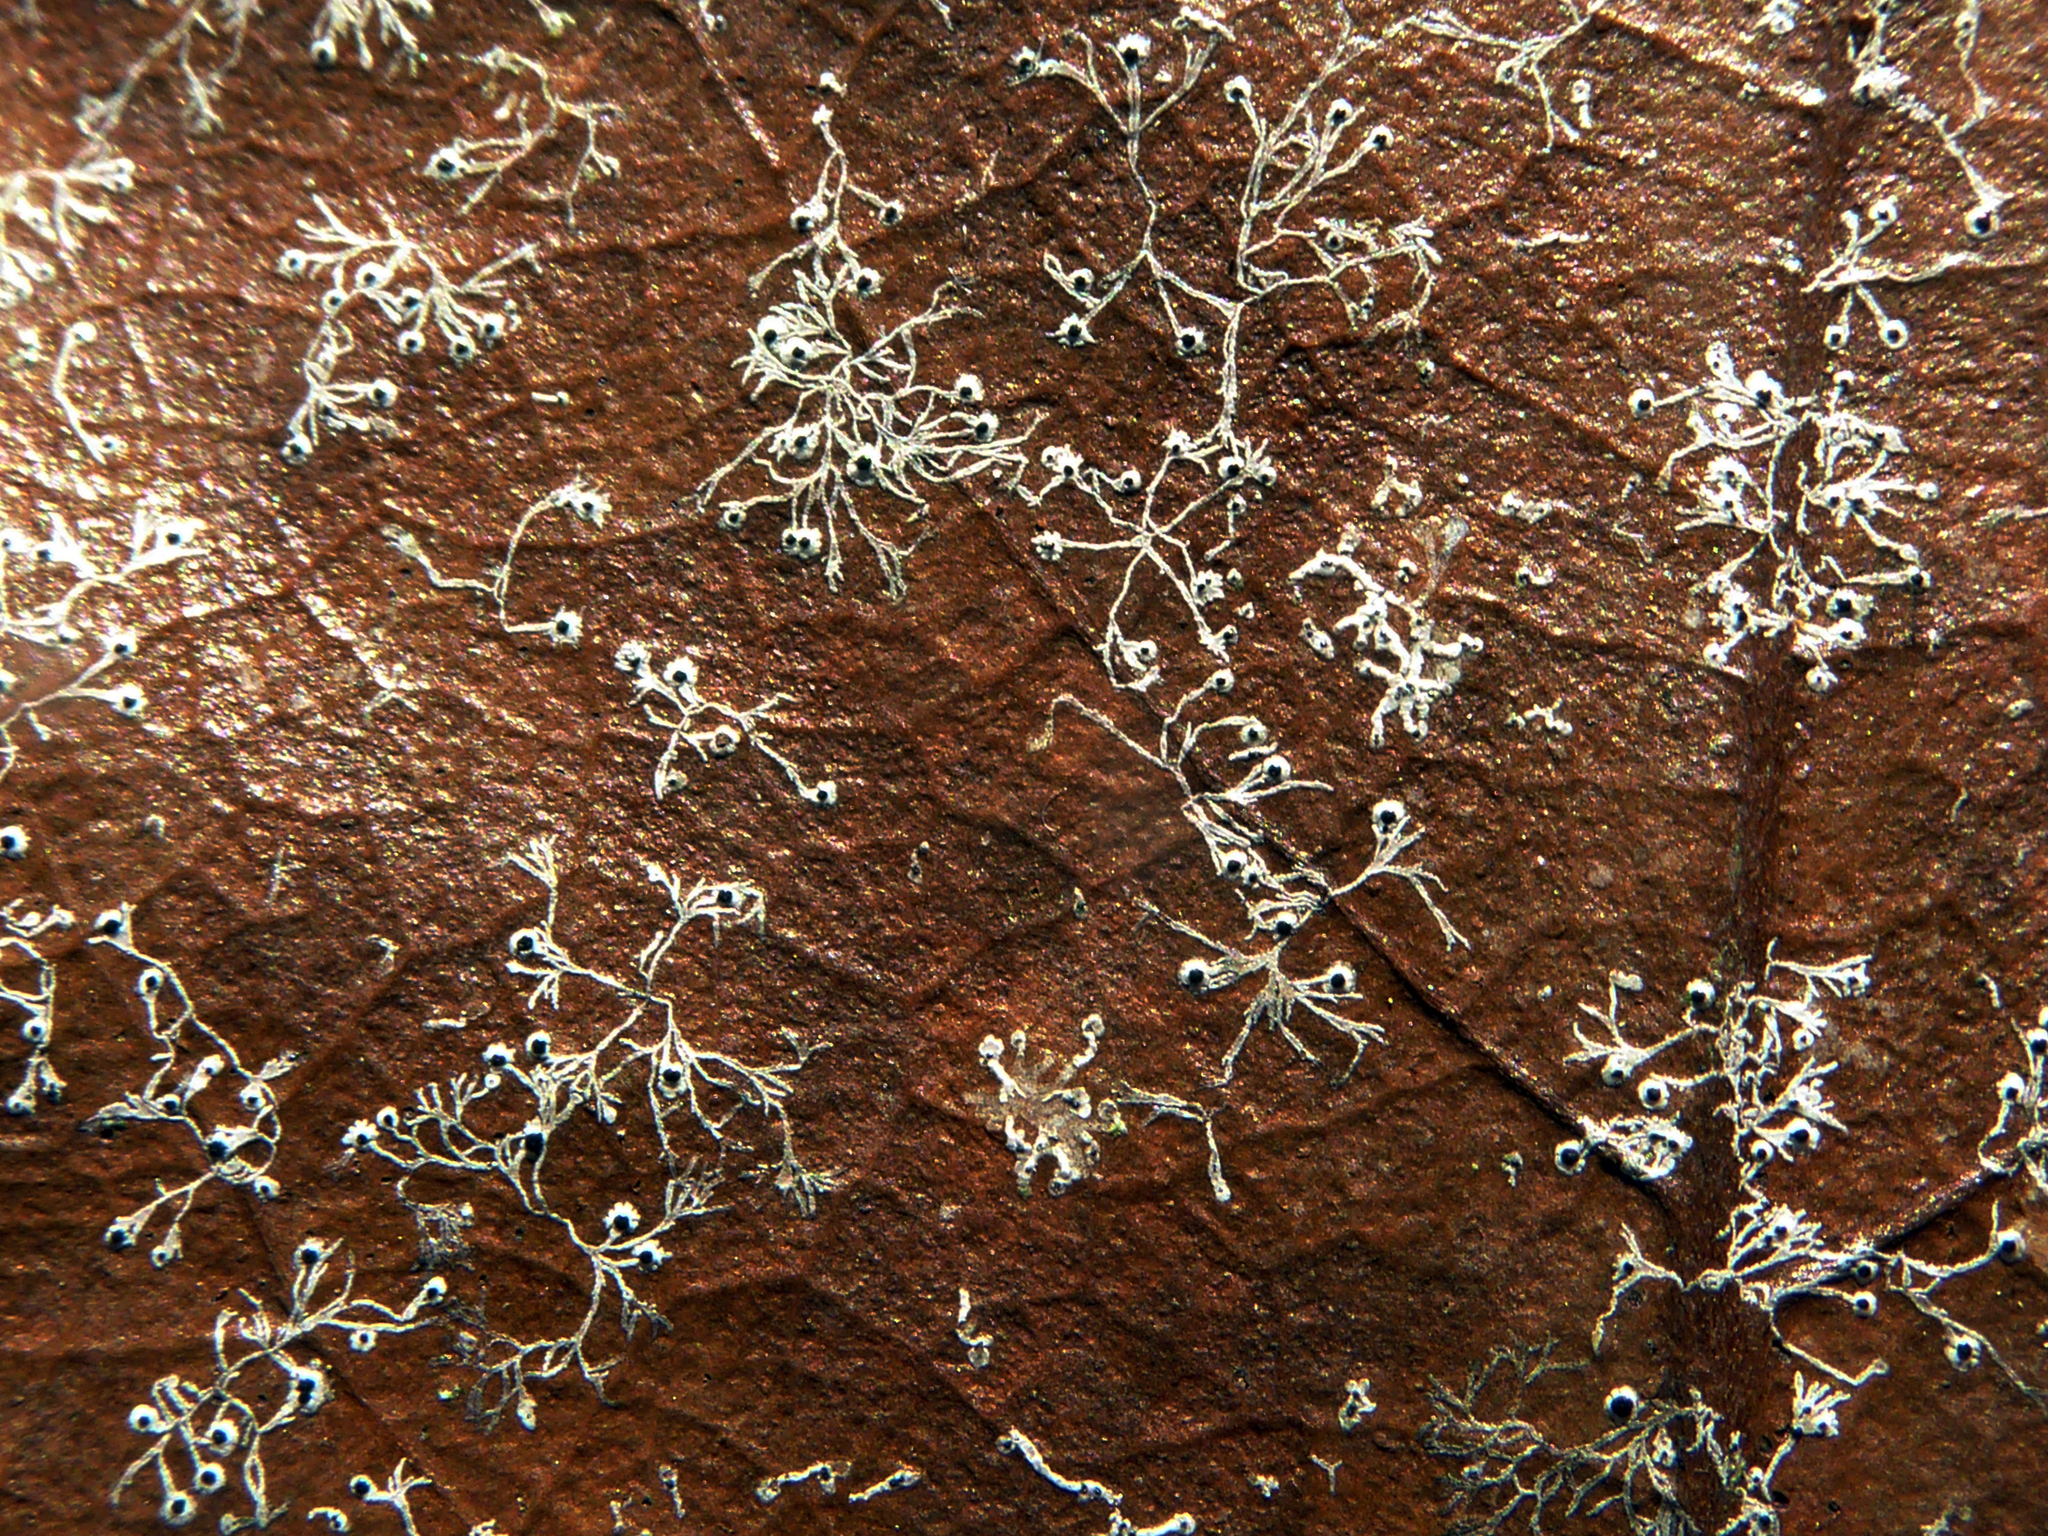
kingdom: Fungi
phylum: Ascomycota
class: Dothideomycetes
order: Strigulales
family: Strigulaceae
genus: Strigula
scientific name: Strigula
